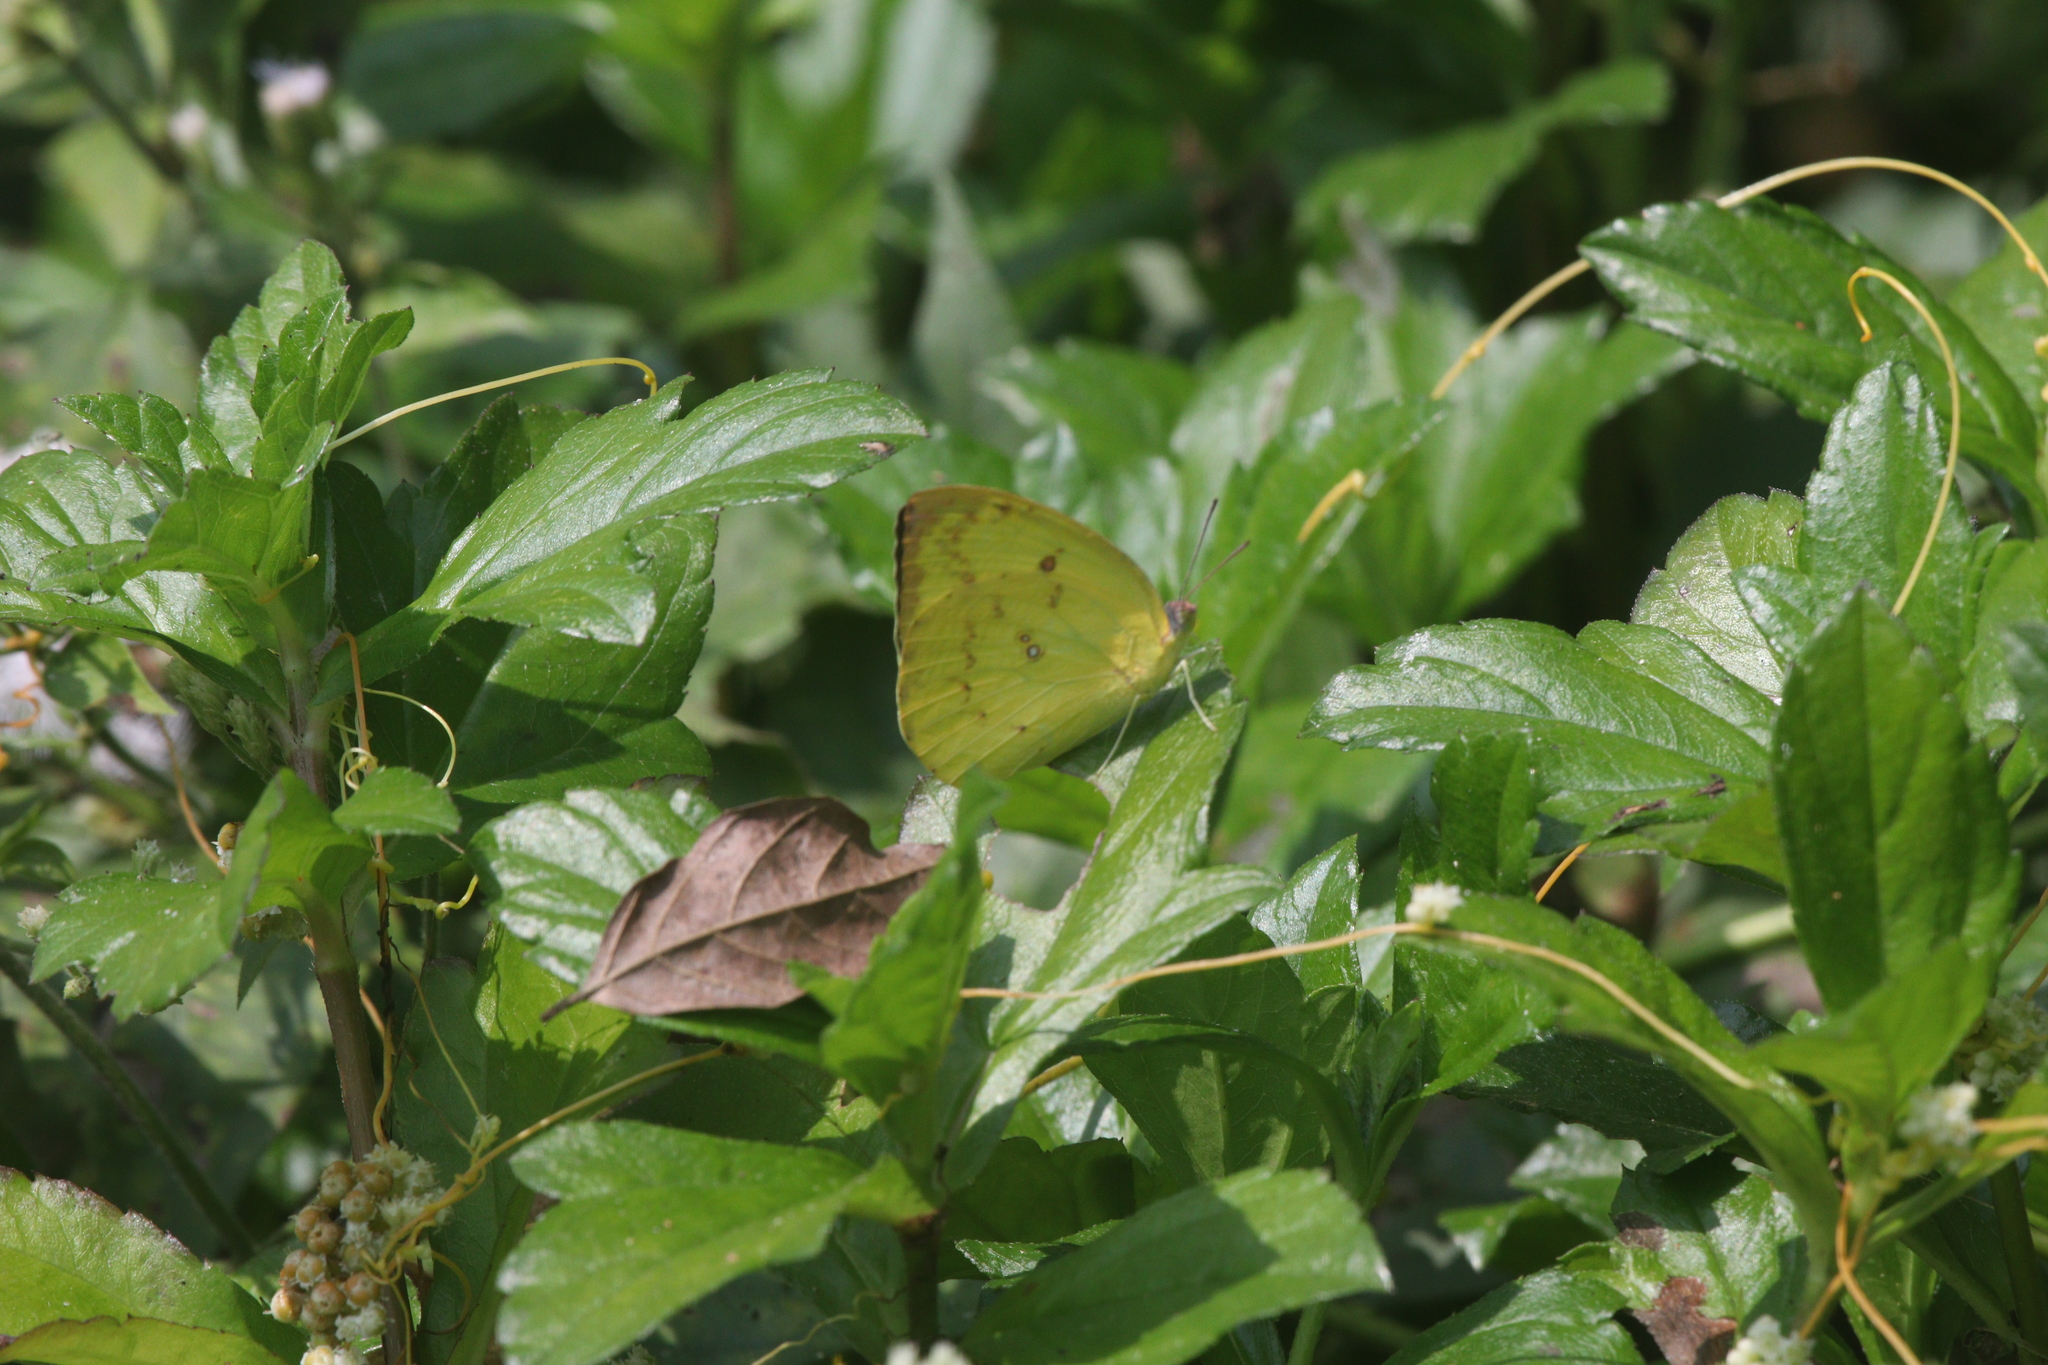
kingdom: Animalia
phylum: Arthropoda
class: Insecta
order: Lepidoptera
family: Pieridae
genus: Catopsilia
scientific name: Catopsilia pomona
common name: Common emigrant
